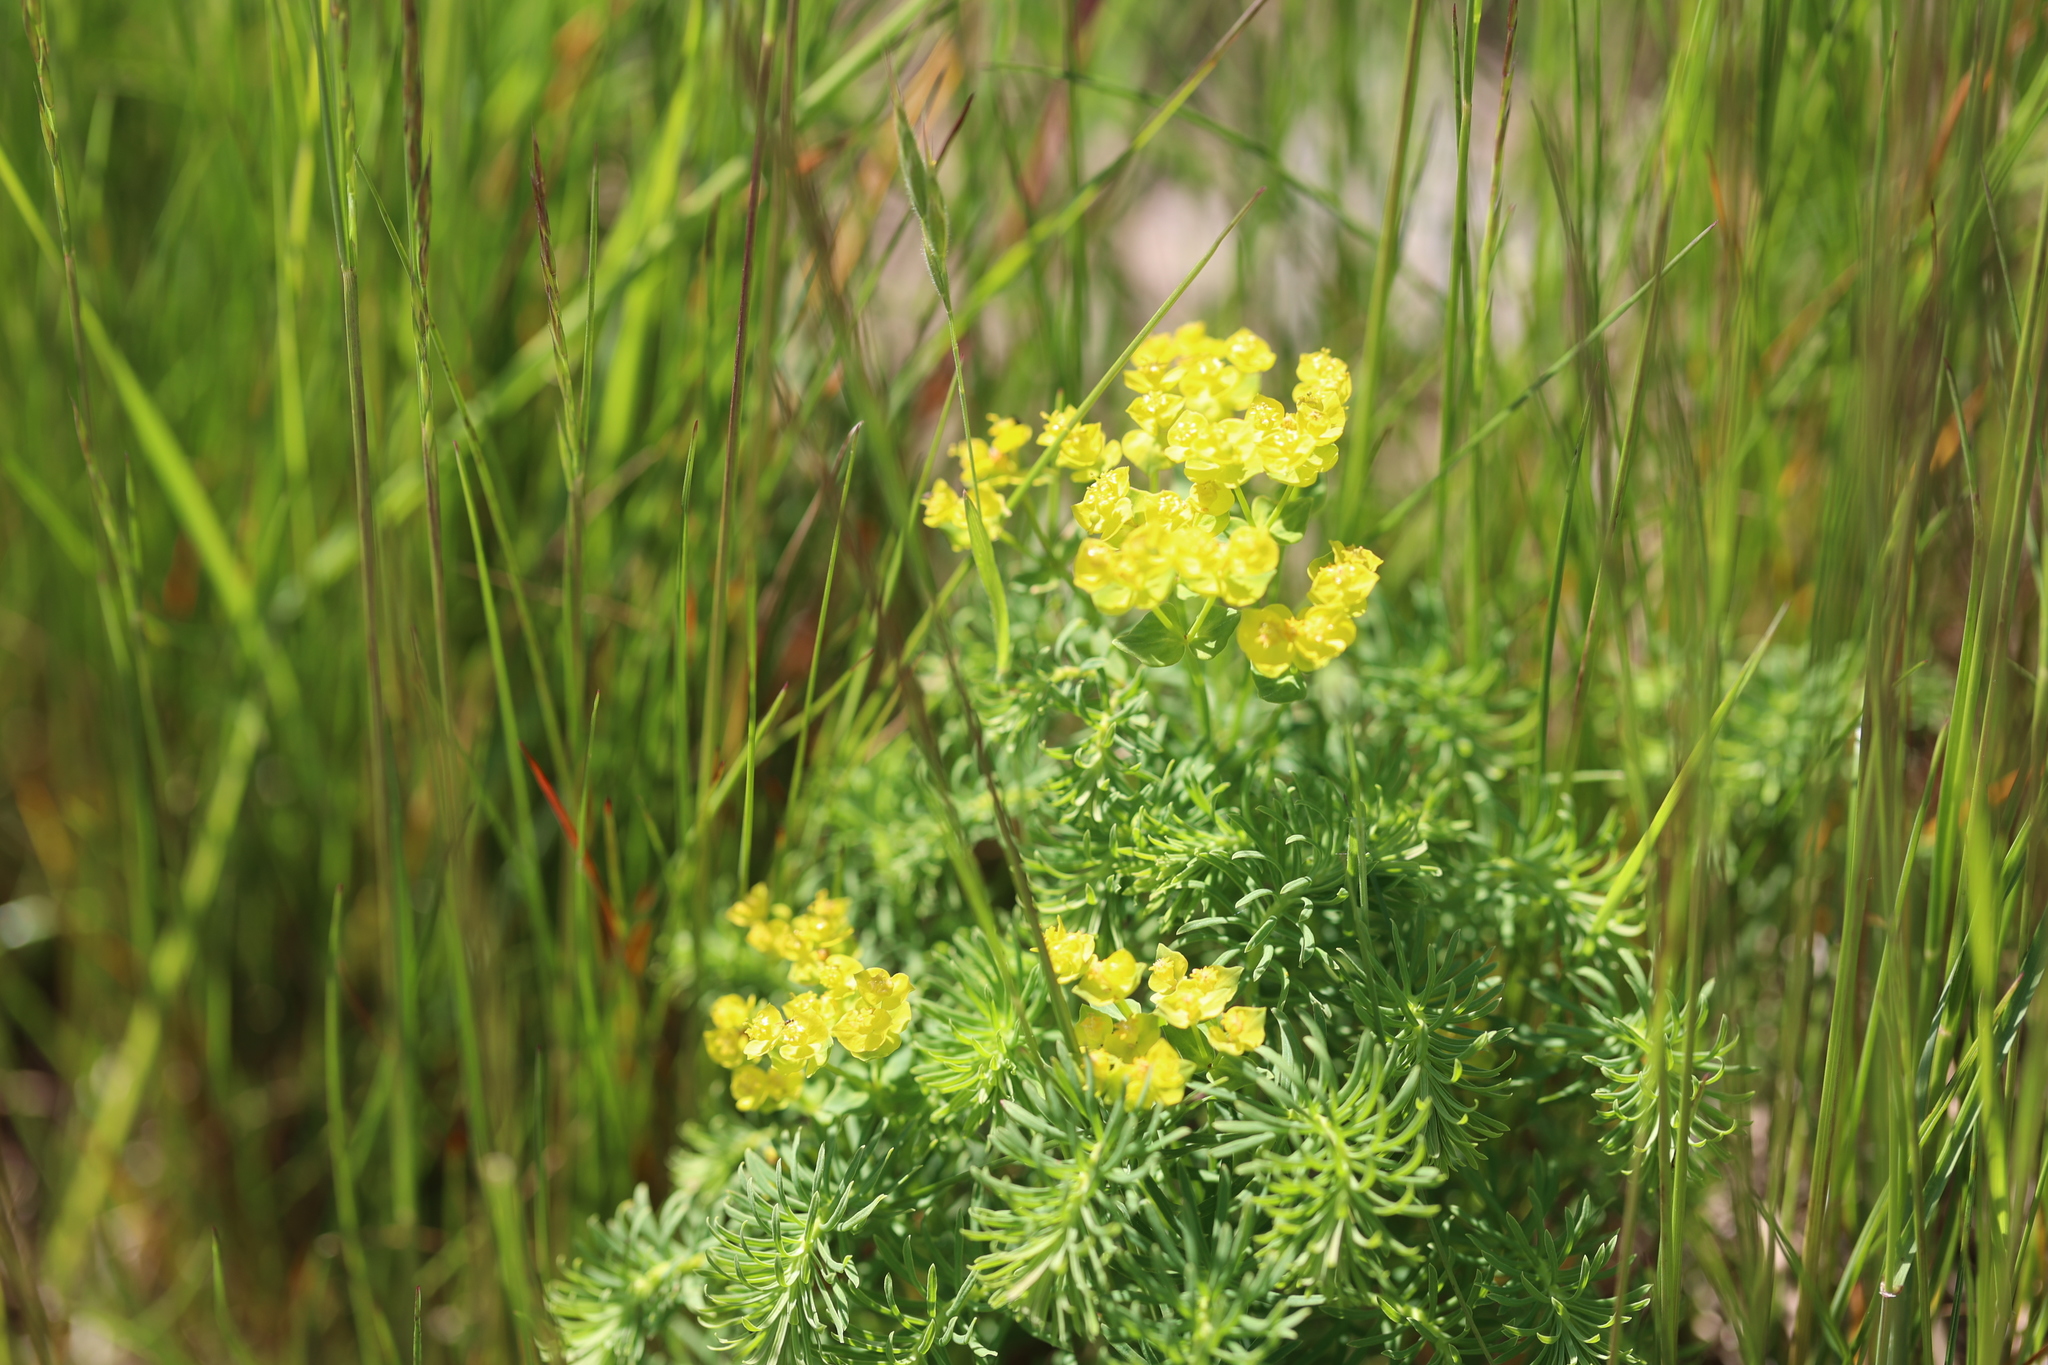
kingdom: Plantae
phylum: Tracheophyta
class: Magnoliopsida
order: Malpighiales
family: Euphorbiaceae
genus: Euphorbia
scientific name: Euphorbia cyparissias
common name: Cypress spurge
